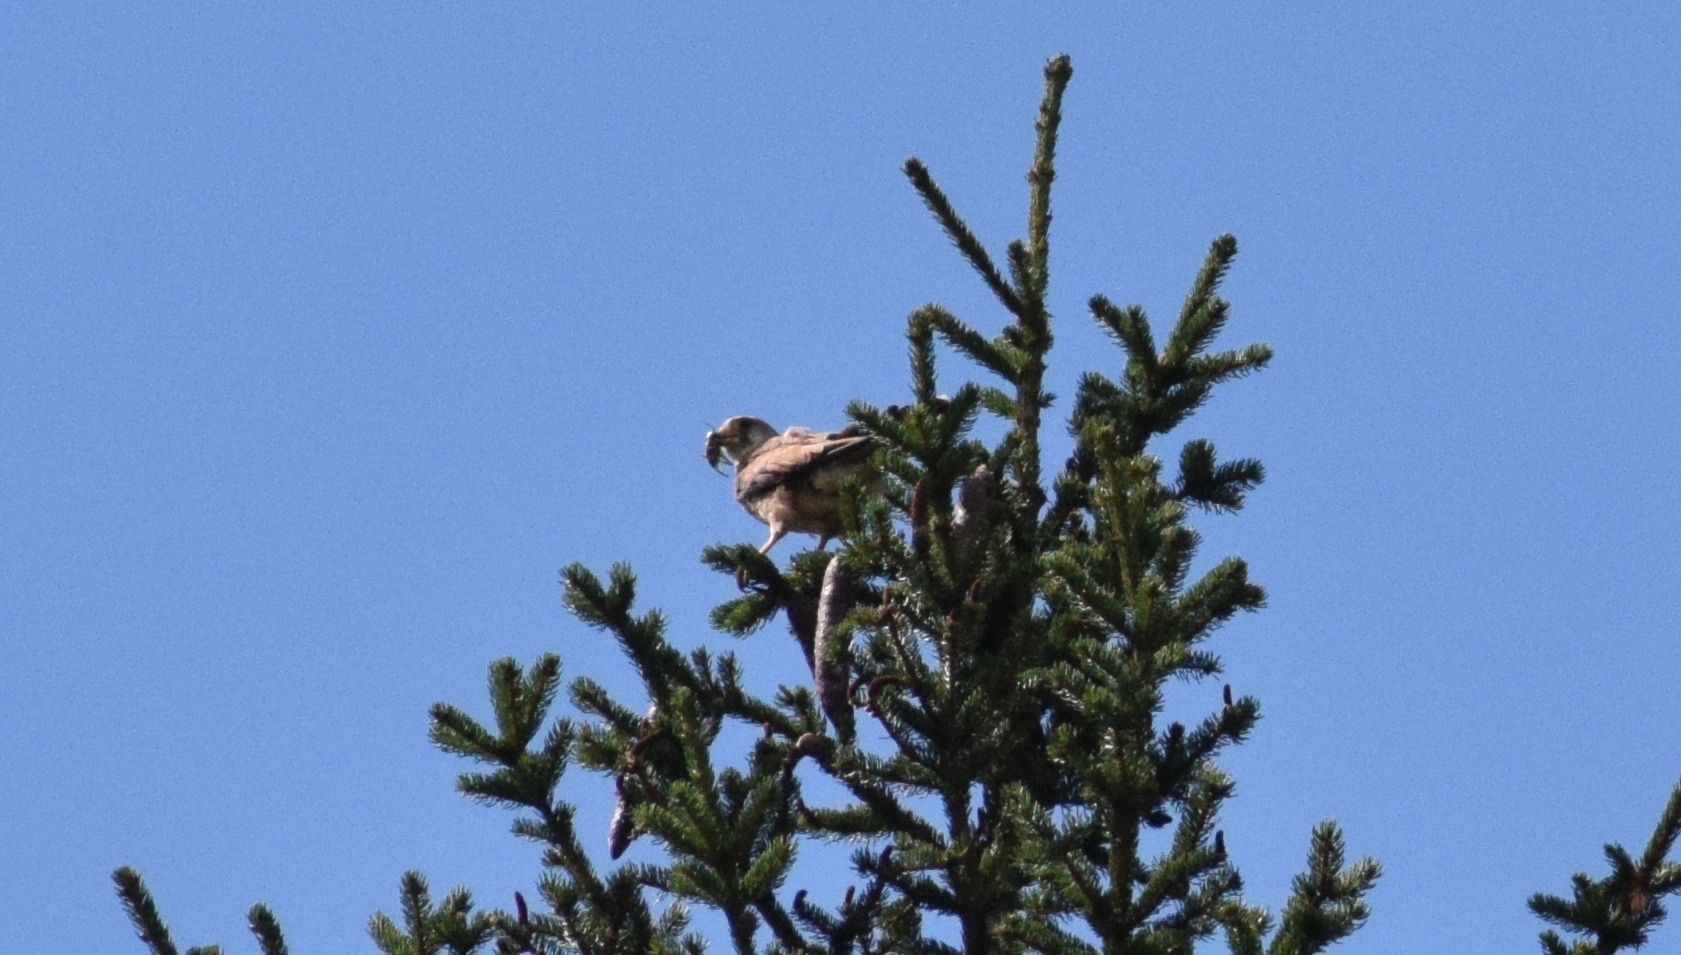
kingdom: Animalia
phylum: Chordata
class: Aves
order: Falconiformes
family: Falconidae
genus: Falco
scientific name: Falco tinnunculus
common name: Common kestrel
